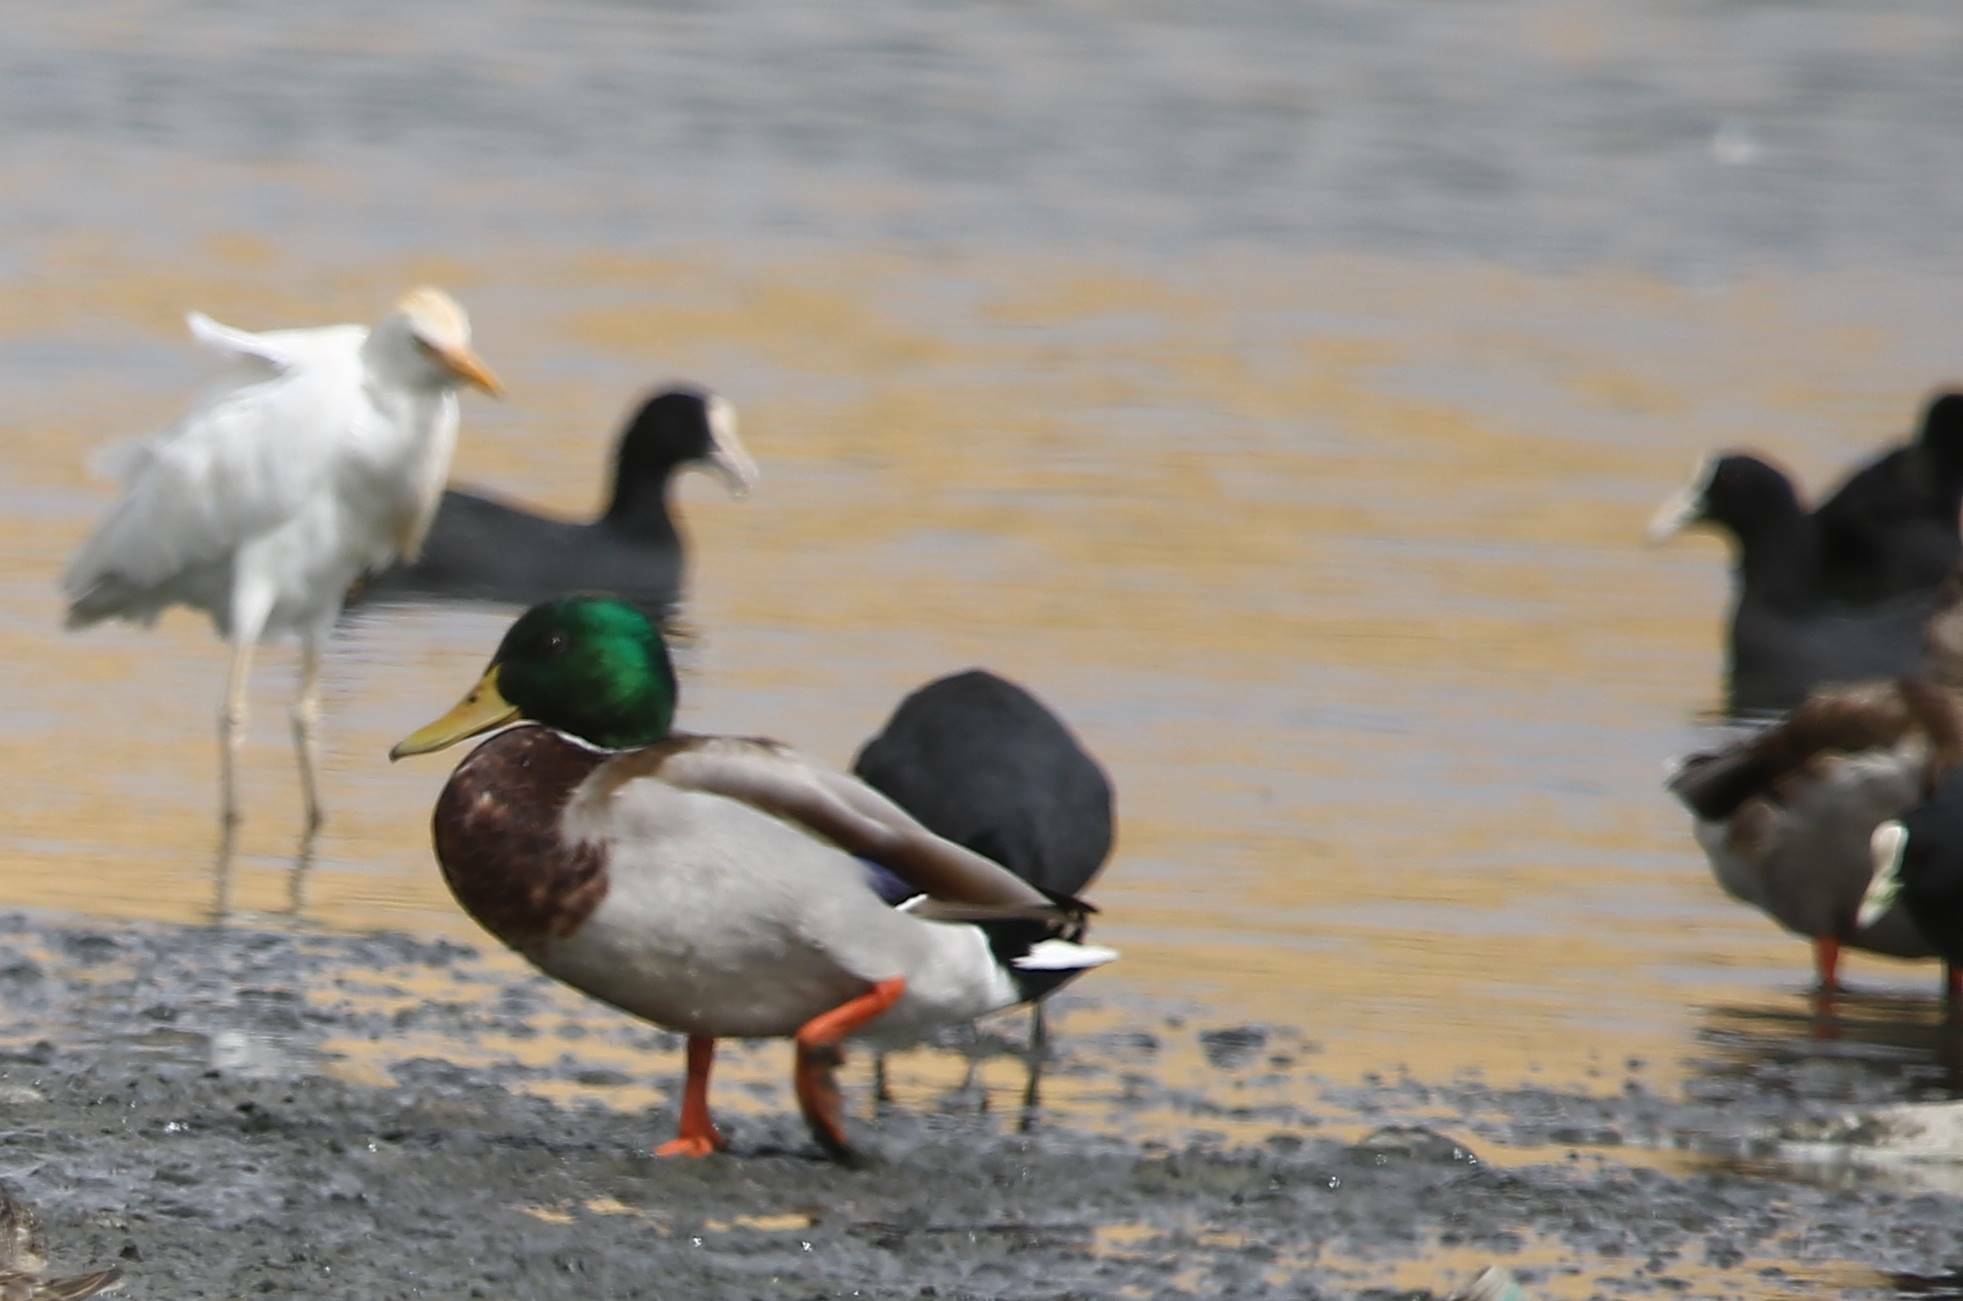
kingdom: Animalia
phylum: Chordata
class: Aves
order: Anseriformes
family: Anatidae
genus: Anas
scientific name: Anas platyrhynchos
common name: Mallard
